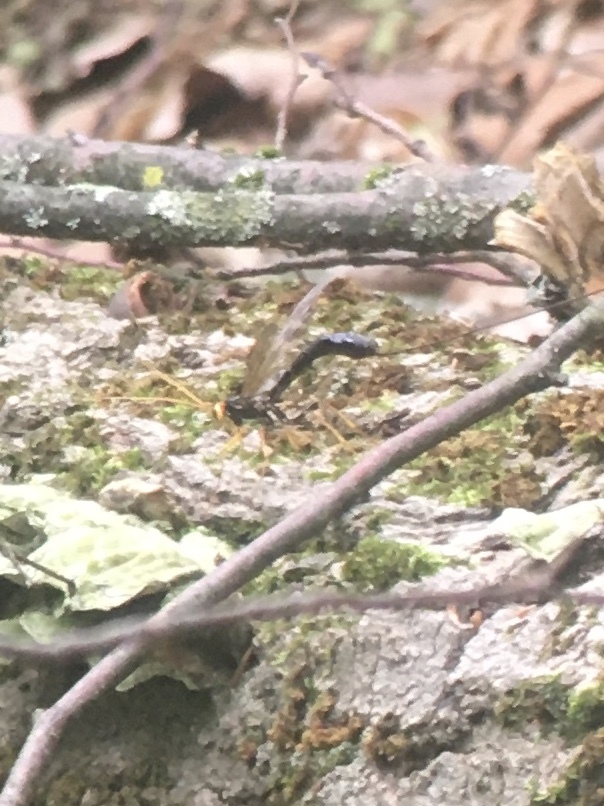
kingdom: Animalia
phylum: Arthropoda
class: Insecta
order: Hymenoptera
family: Ichneumonidae
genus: Megarhyssa
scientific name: Megarhyssa atrata
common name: Black giant ichneumonid wasp
